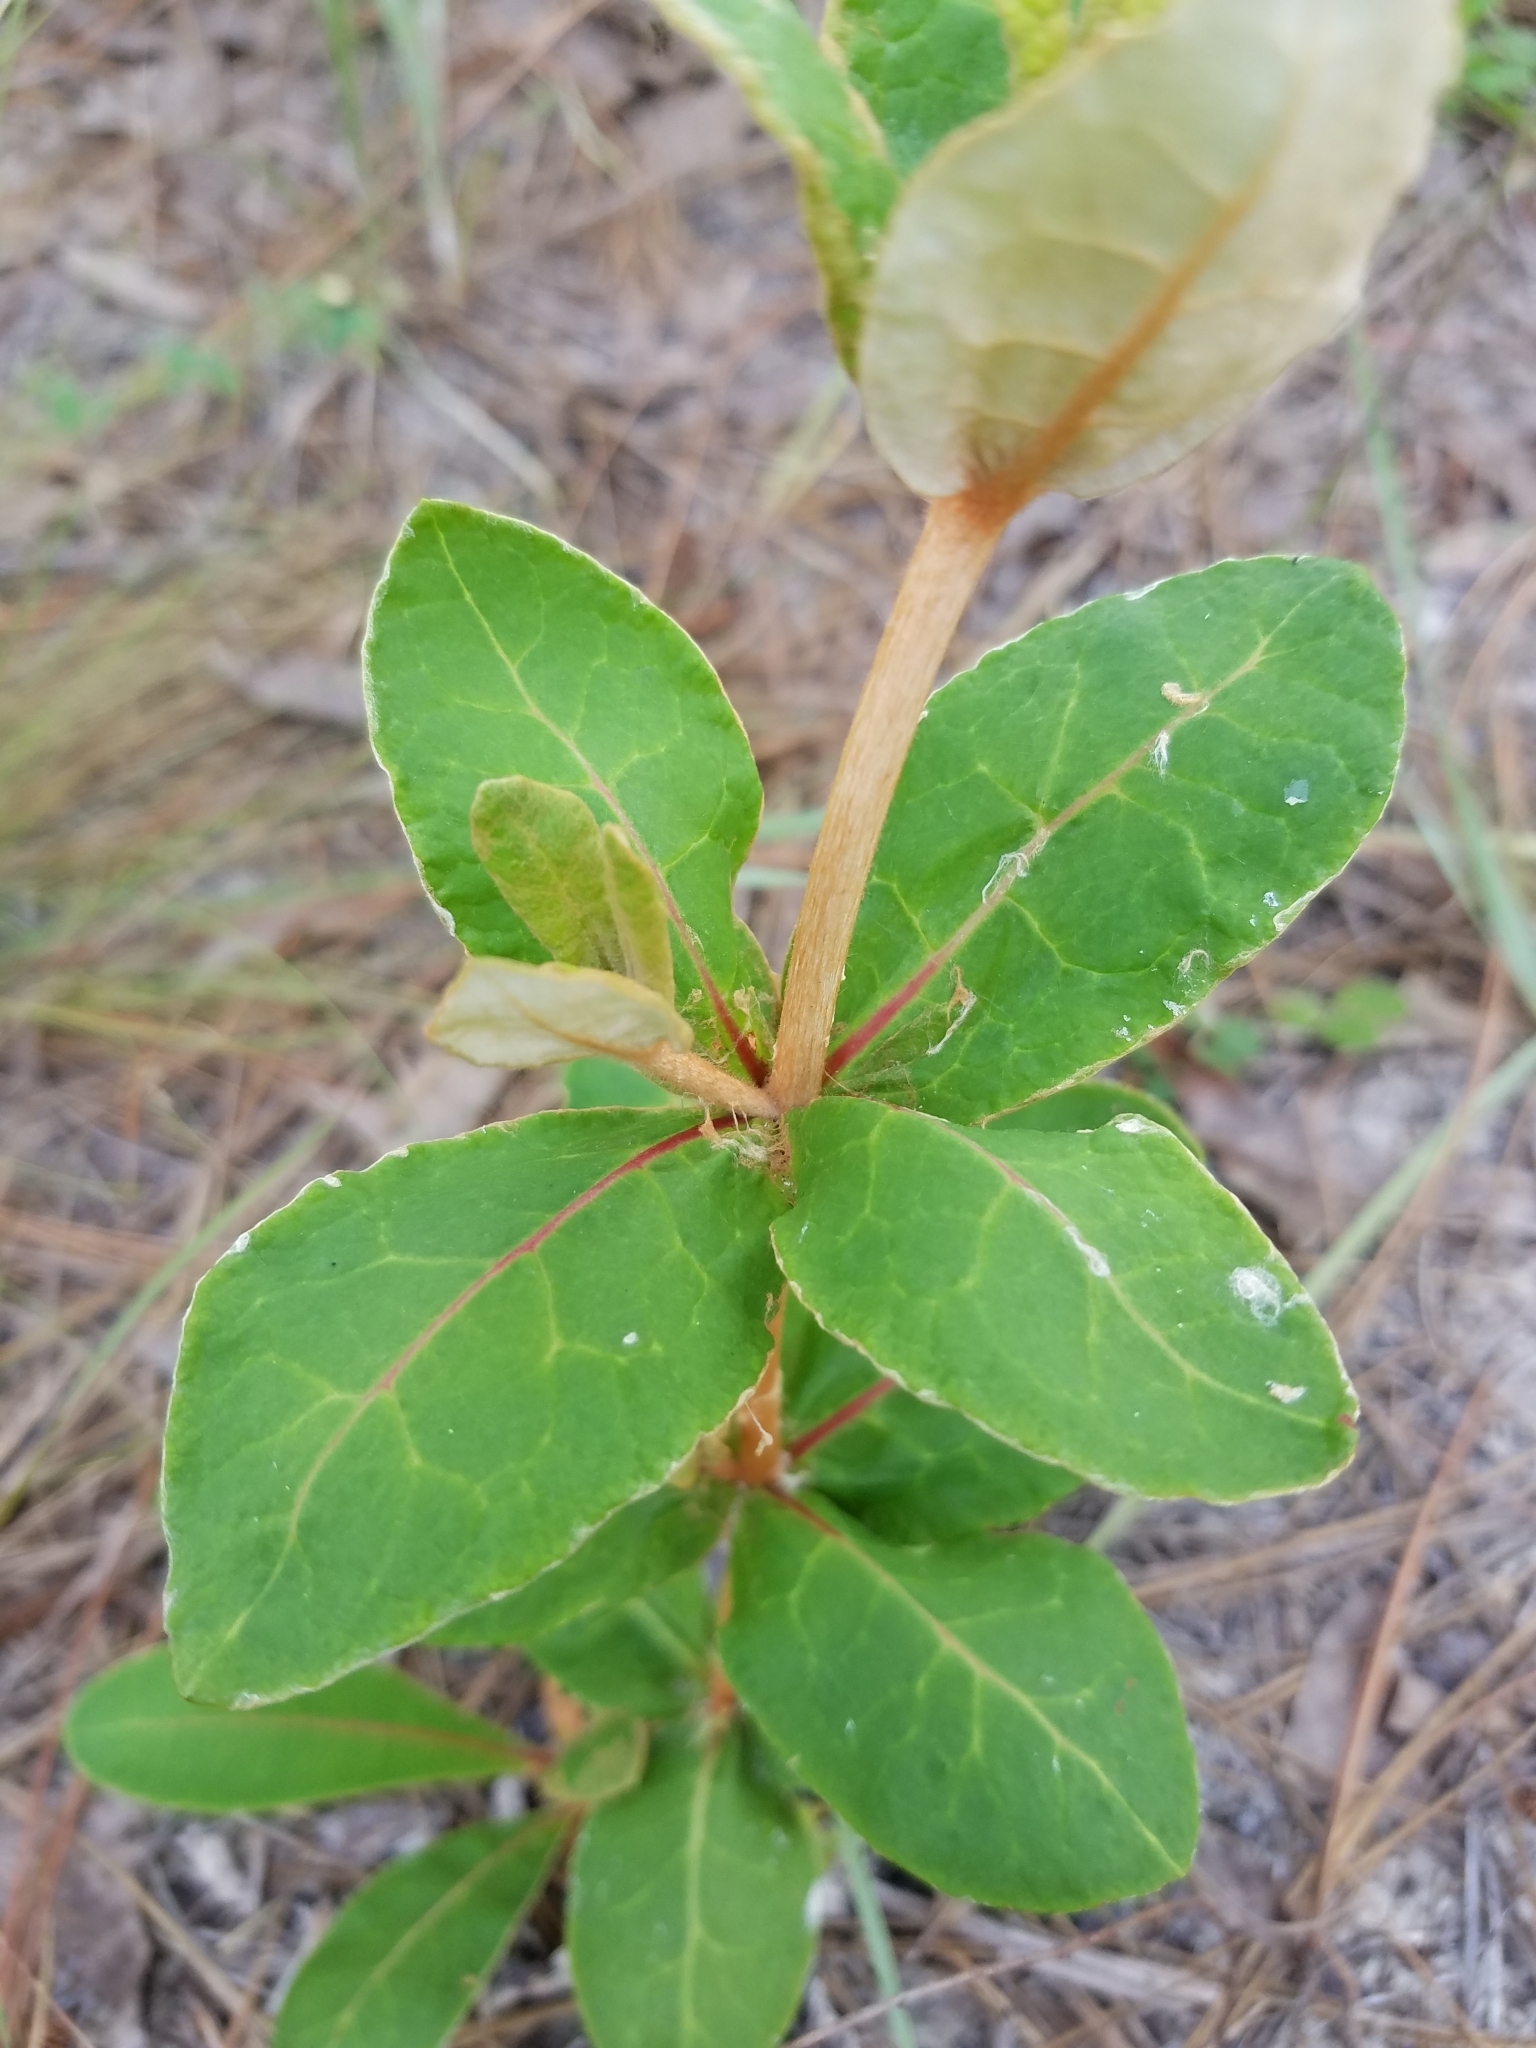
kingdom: Plantae
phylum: Tracheophyta
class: Magnoliopsida
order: Caryophyllales
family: Polygonaceae
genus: Eriogonum
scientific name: Eriogonum tomentosum
